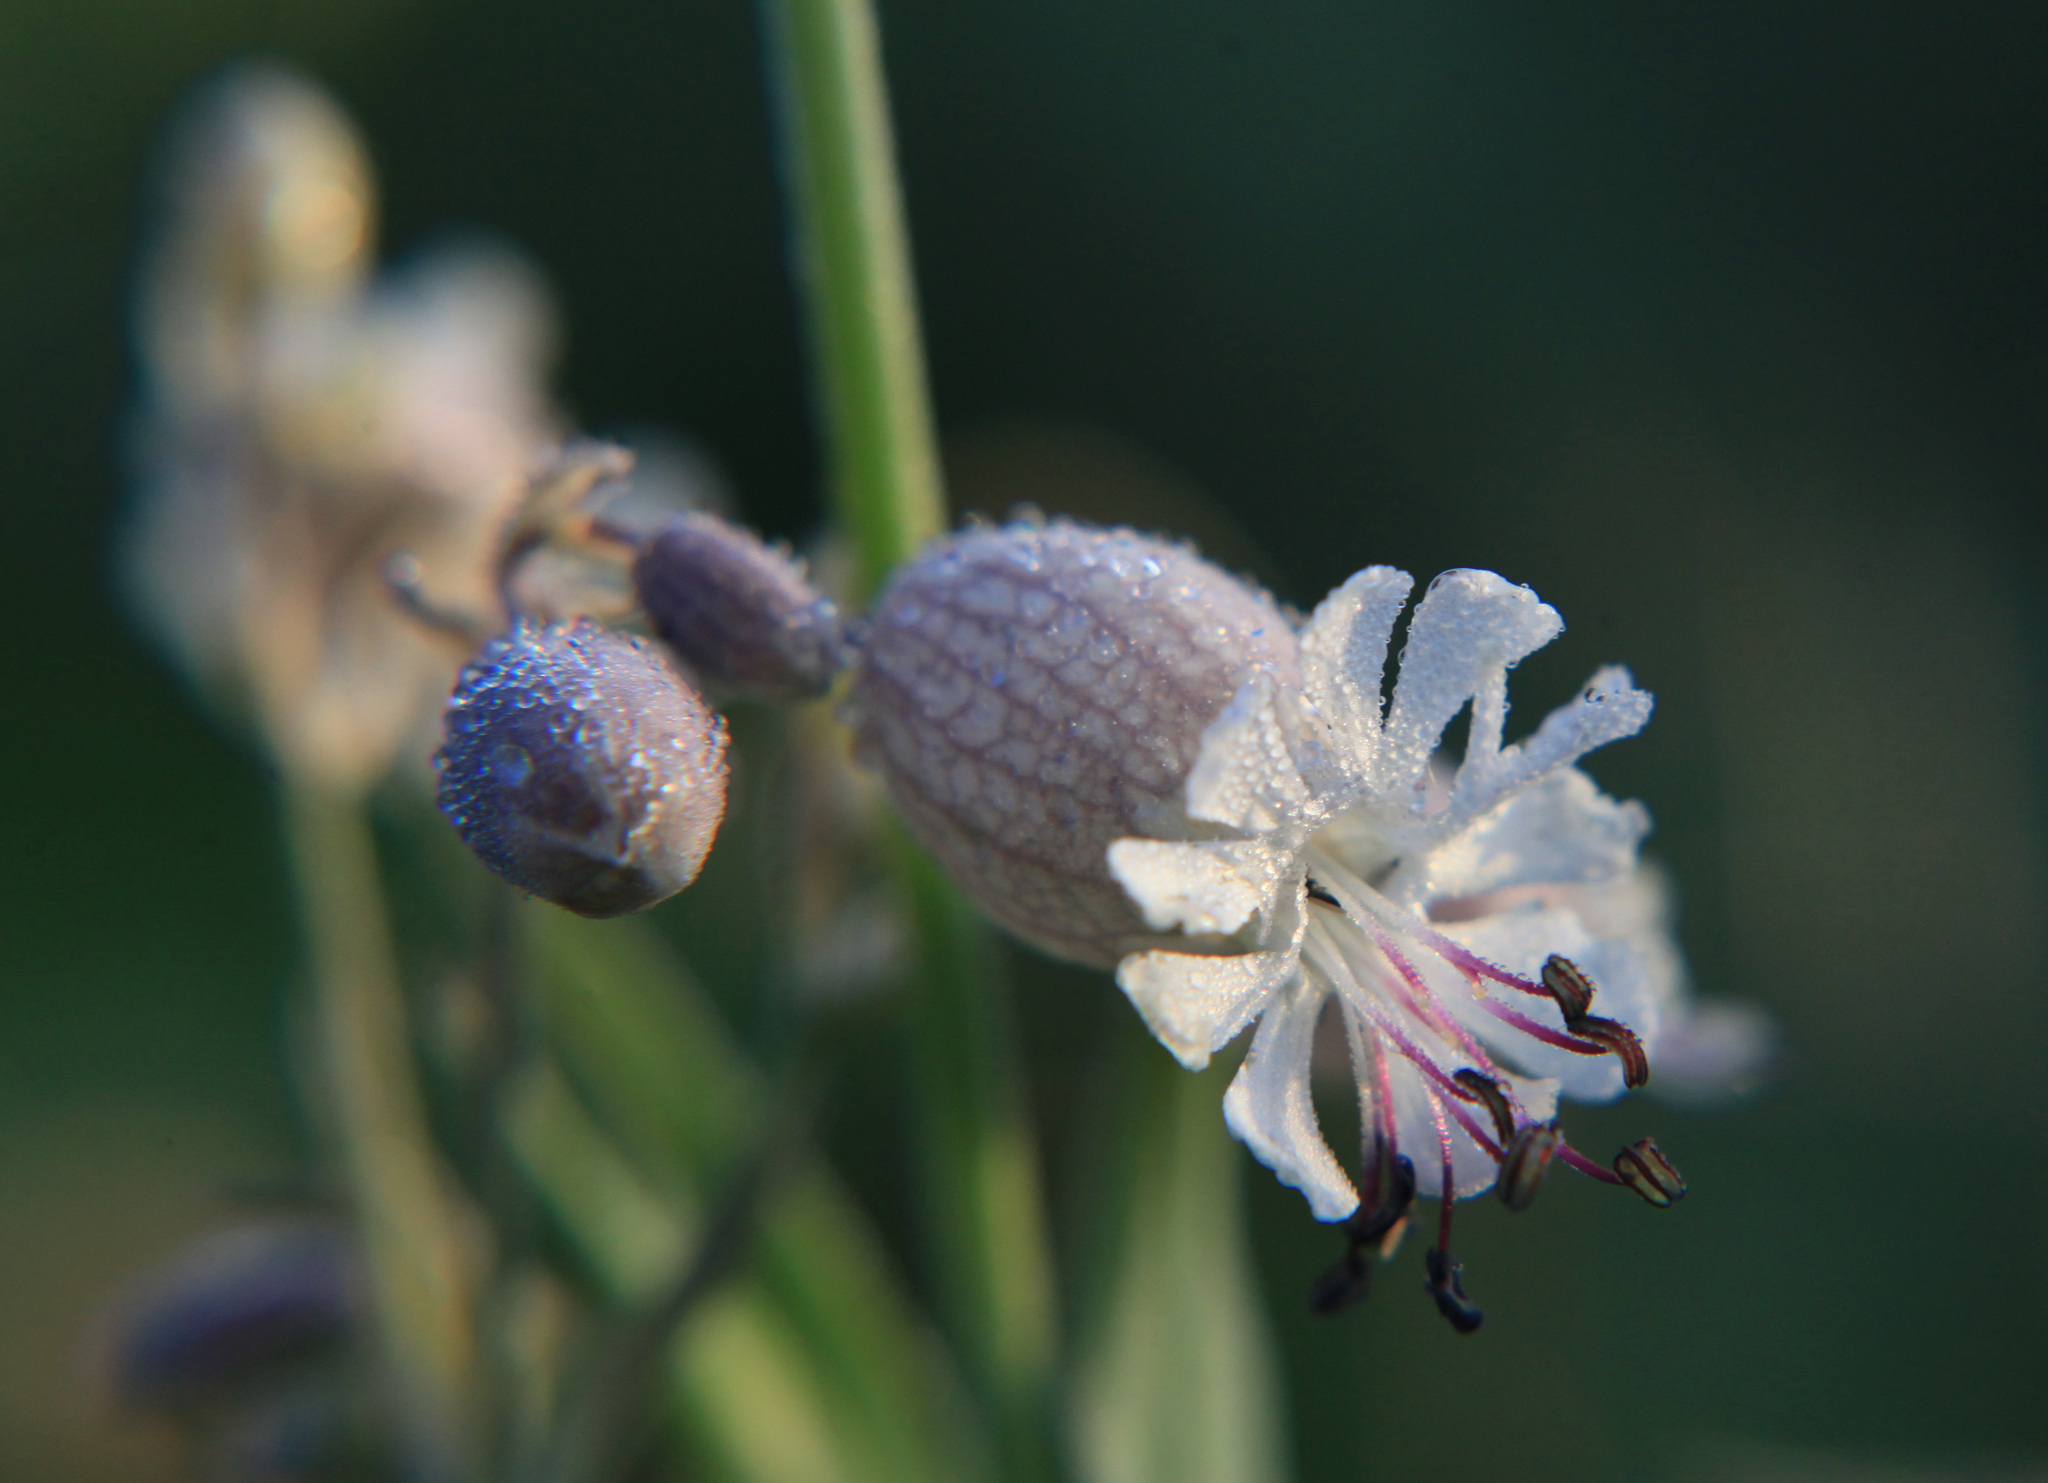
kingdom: Plantae
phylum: Tracheophyta
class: Magnoliopsida
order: Caryophyllales
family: Caryophyllaceae
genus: Silene
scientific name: Silene vulgaris
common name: Bladder campion
